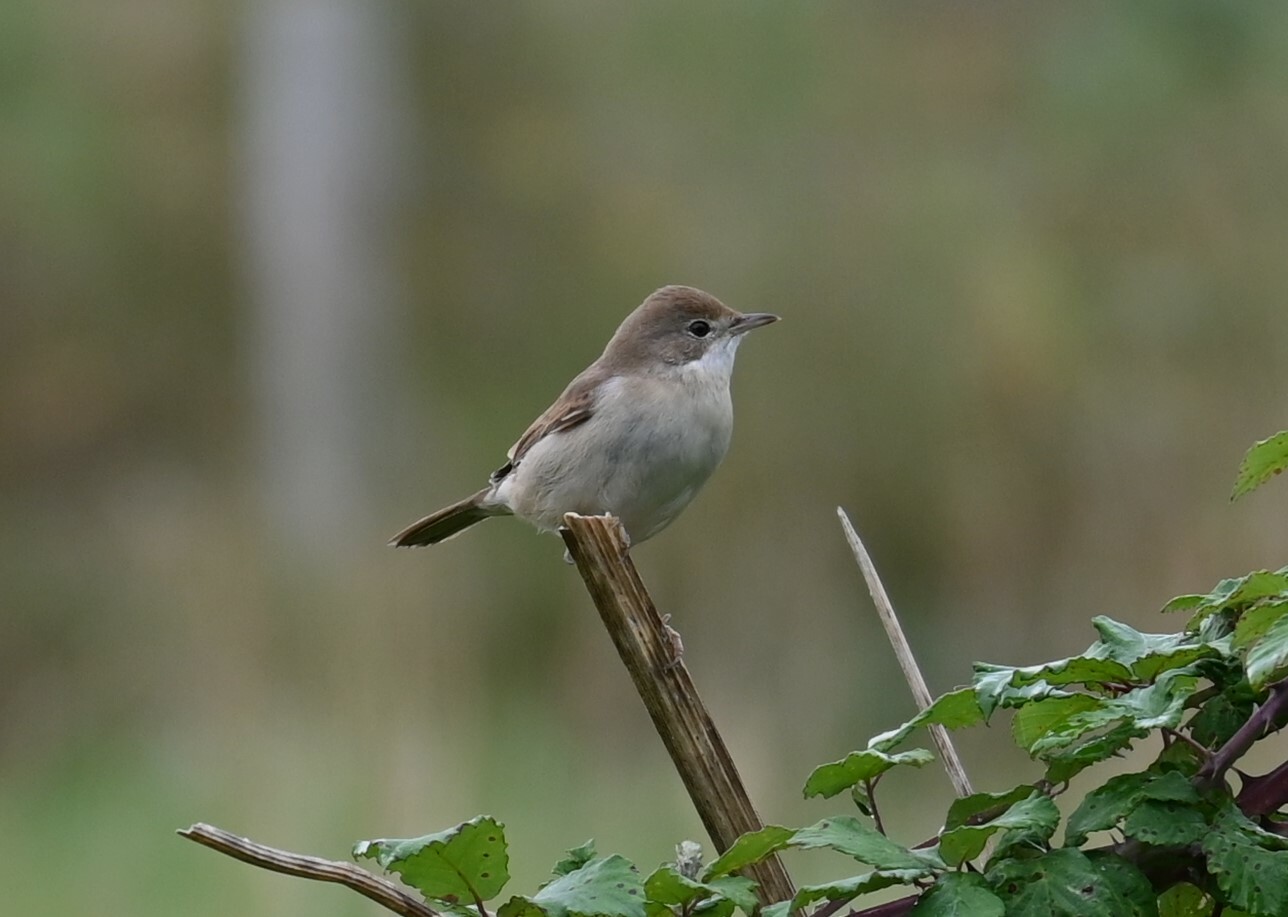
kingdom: Animalia
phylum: Chordata
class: Aves
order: Passeriformes
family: Sylviidae
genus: Sylvia
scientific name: Sylvia communis
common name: Common whitethroat
